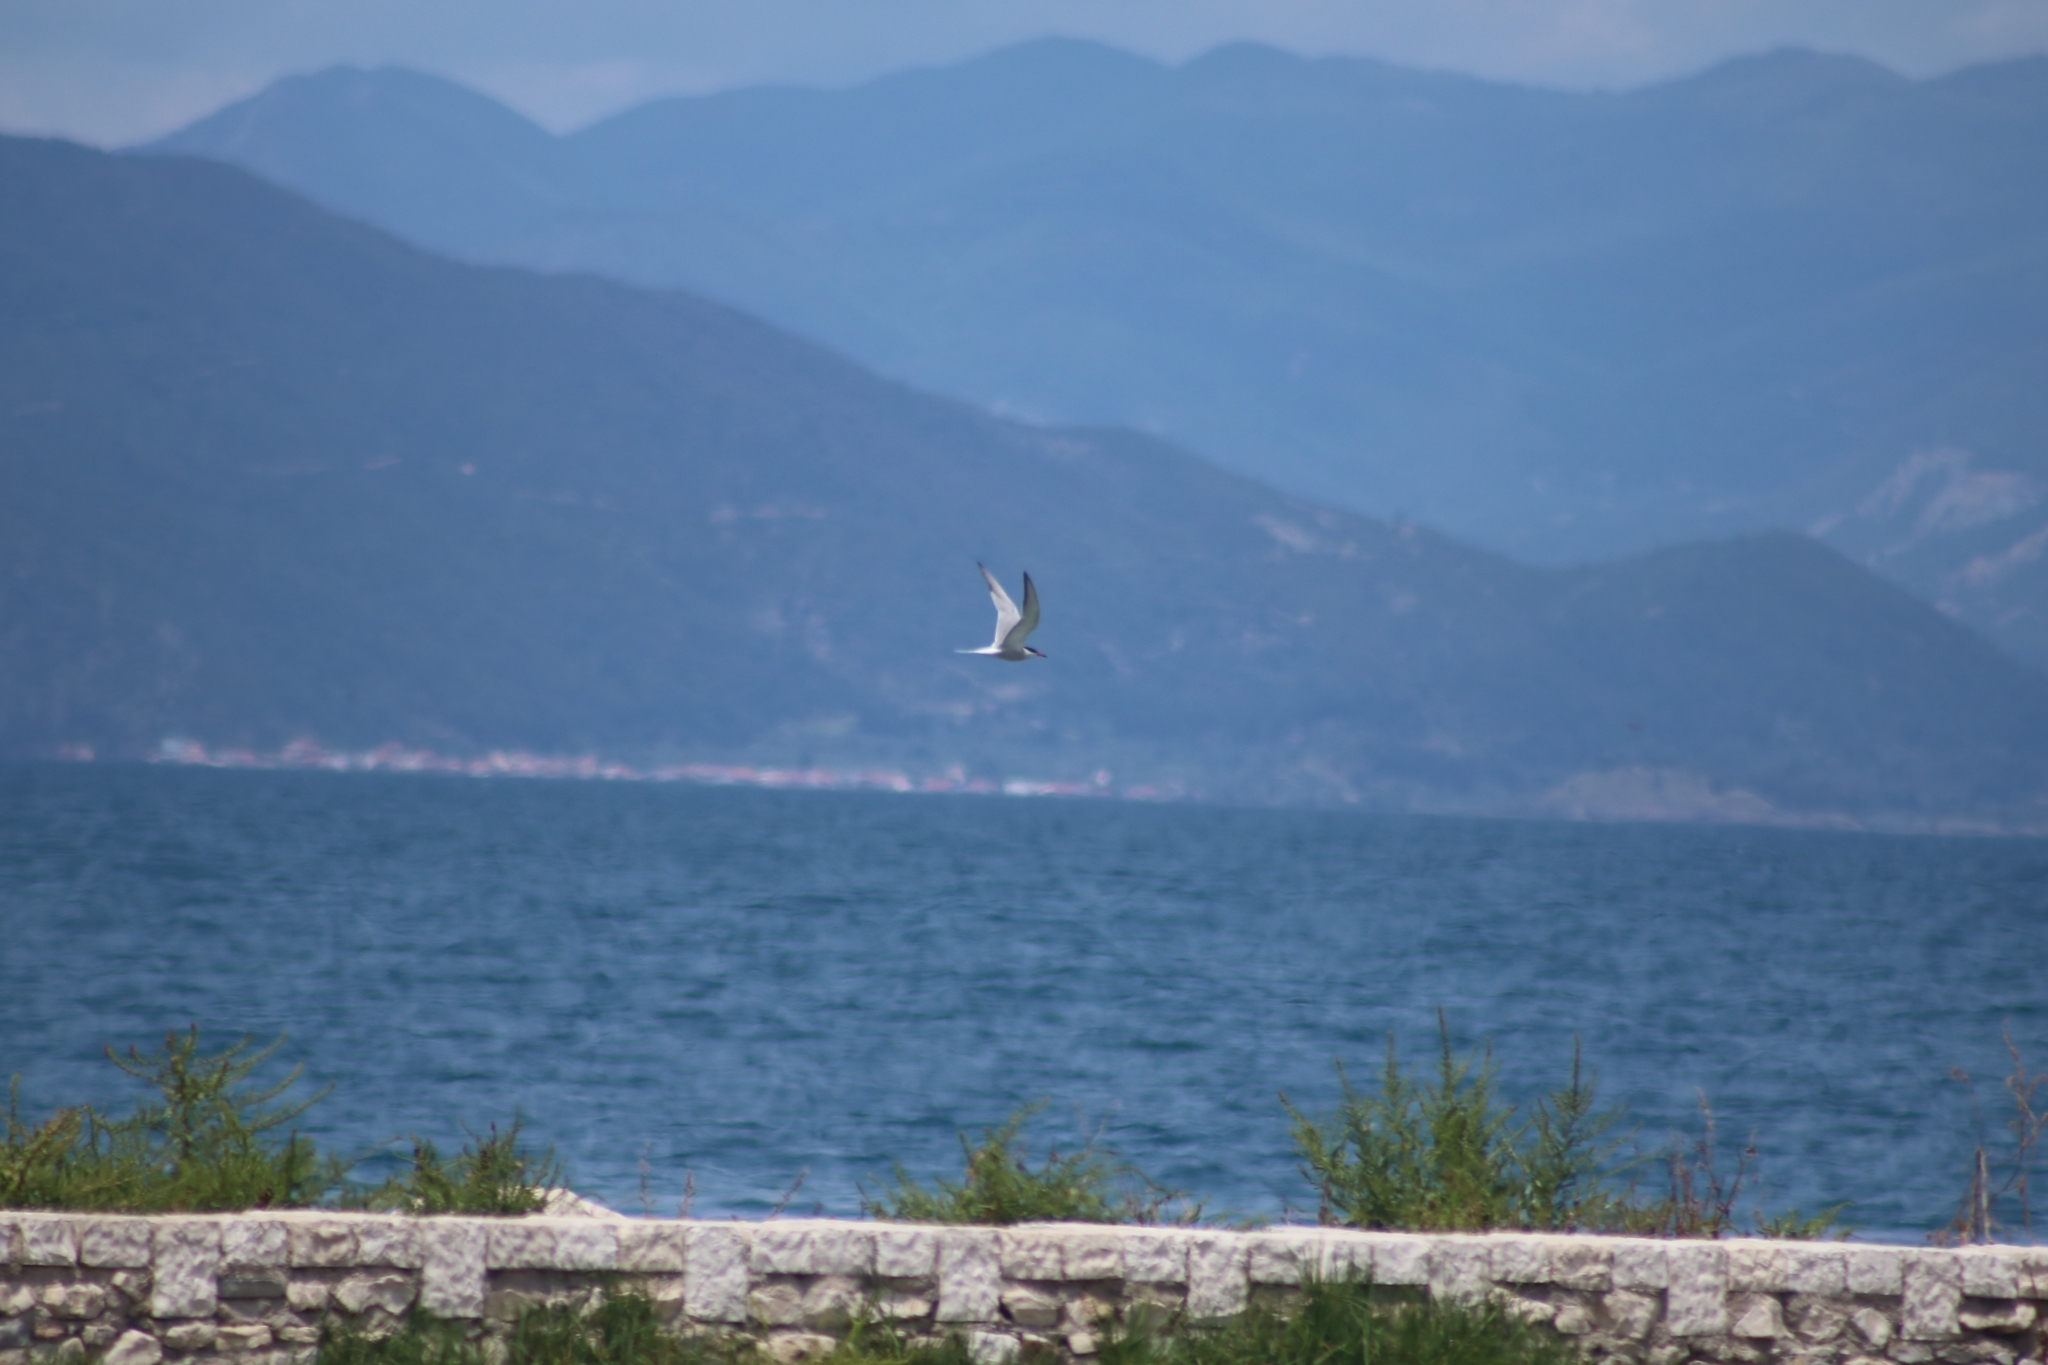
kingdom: Animalia
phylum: Chordata
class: Aves
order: Charadriiformes
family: Laridae
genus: Sterna
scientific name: Sterna hirundo
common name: Common tern
